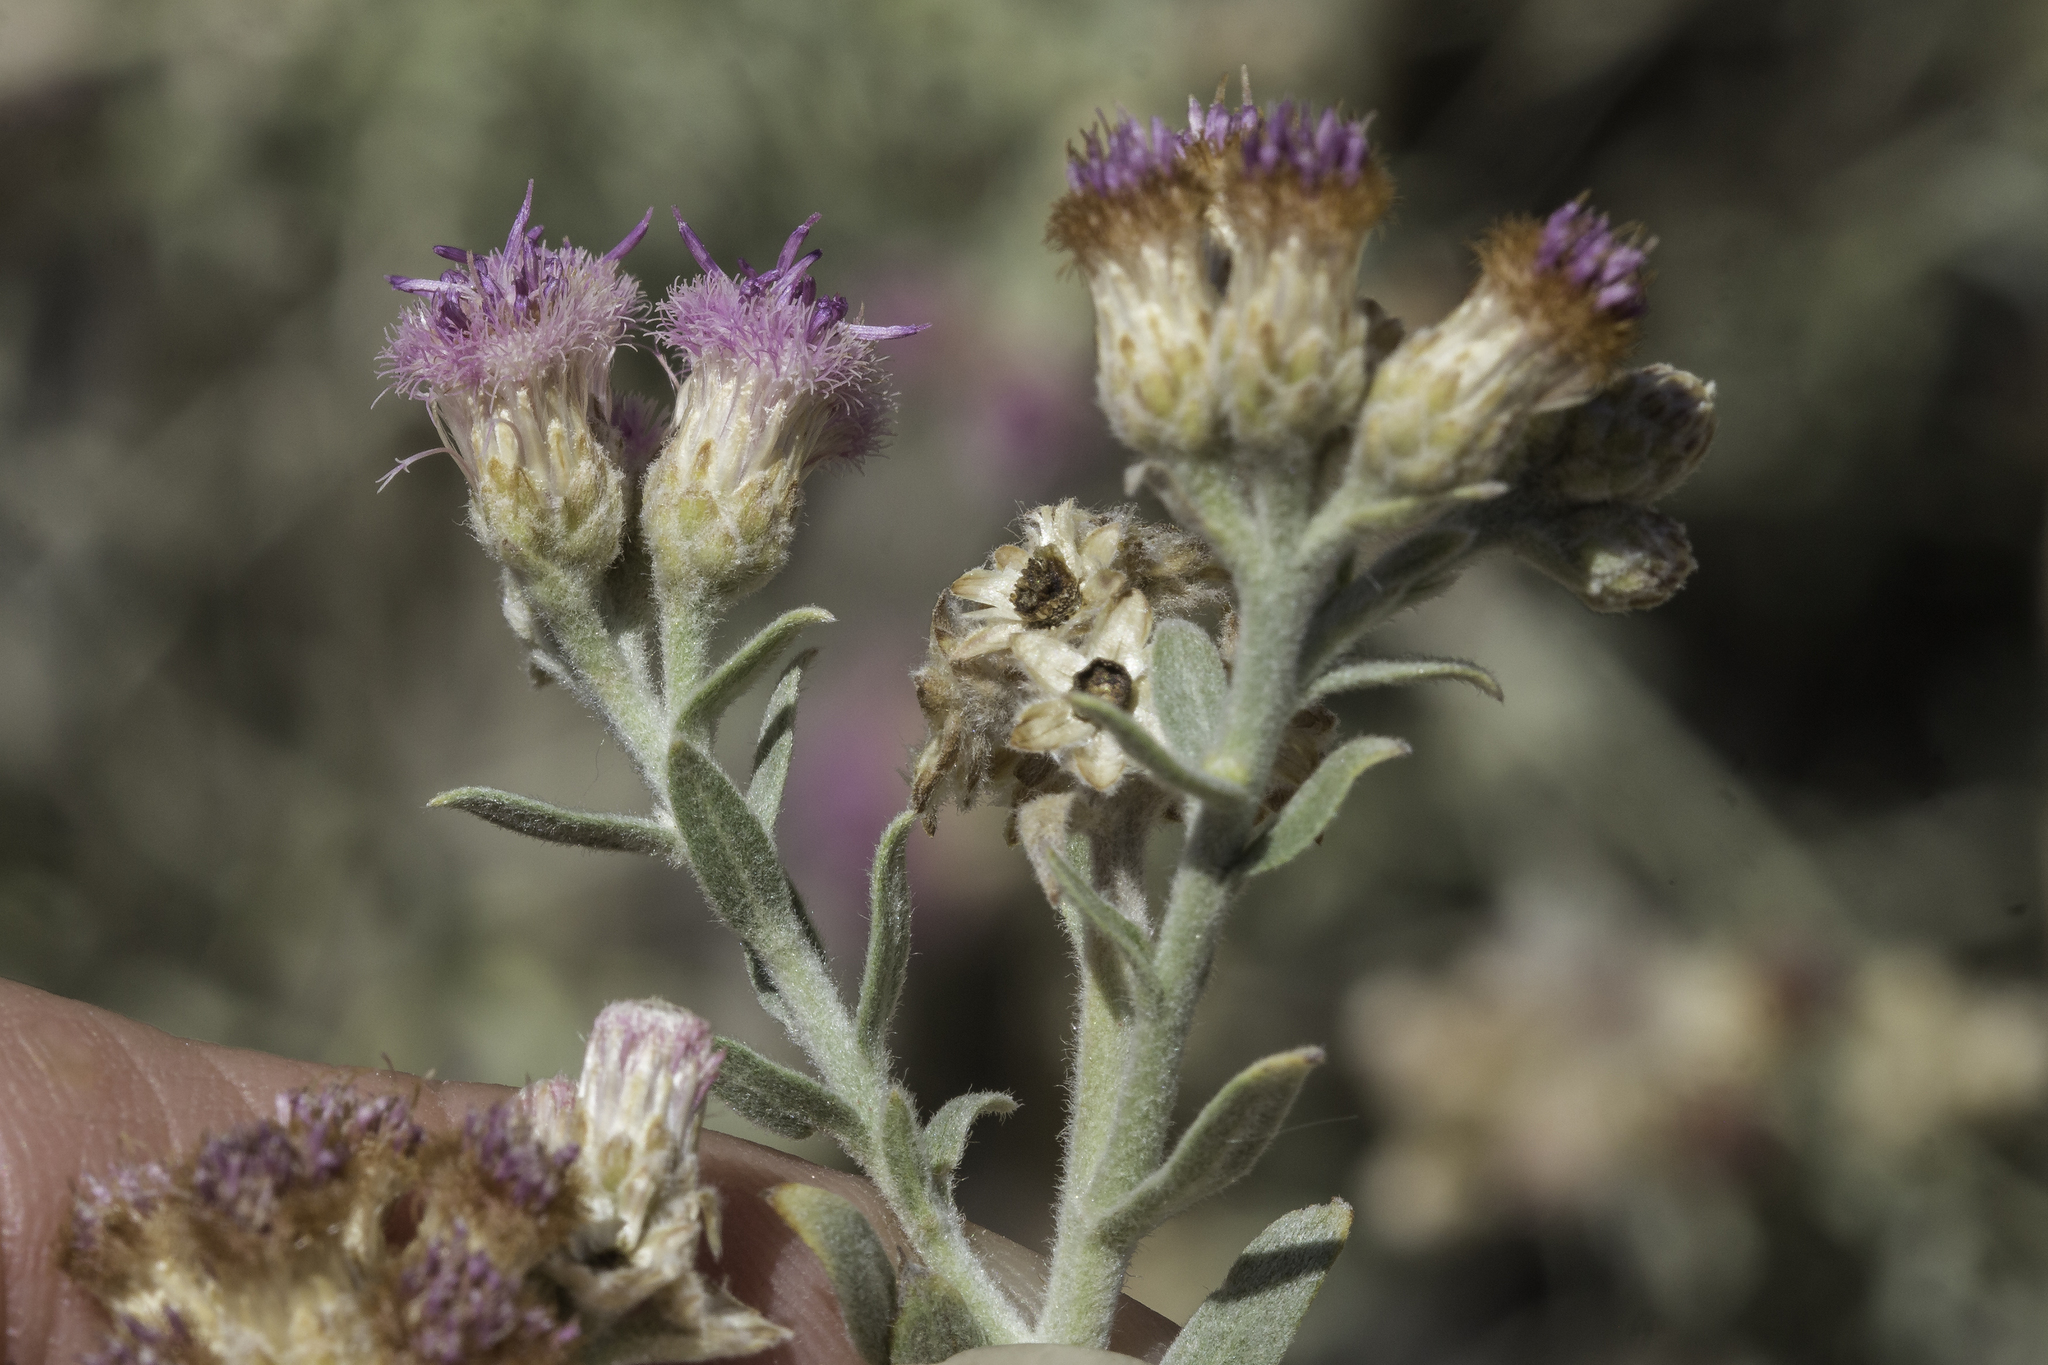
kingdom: Plantae
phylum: Tracheophyta
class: Magnoliopsida
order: Asterales
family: Asteraceae
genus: Pluchea
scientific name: Pluchea sericea
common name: Arrow-weed
